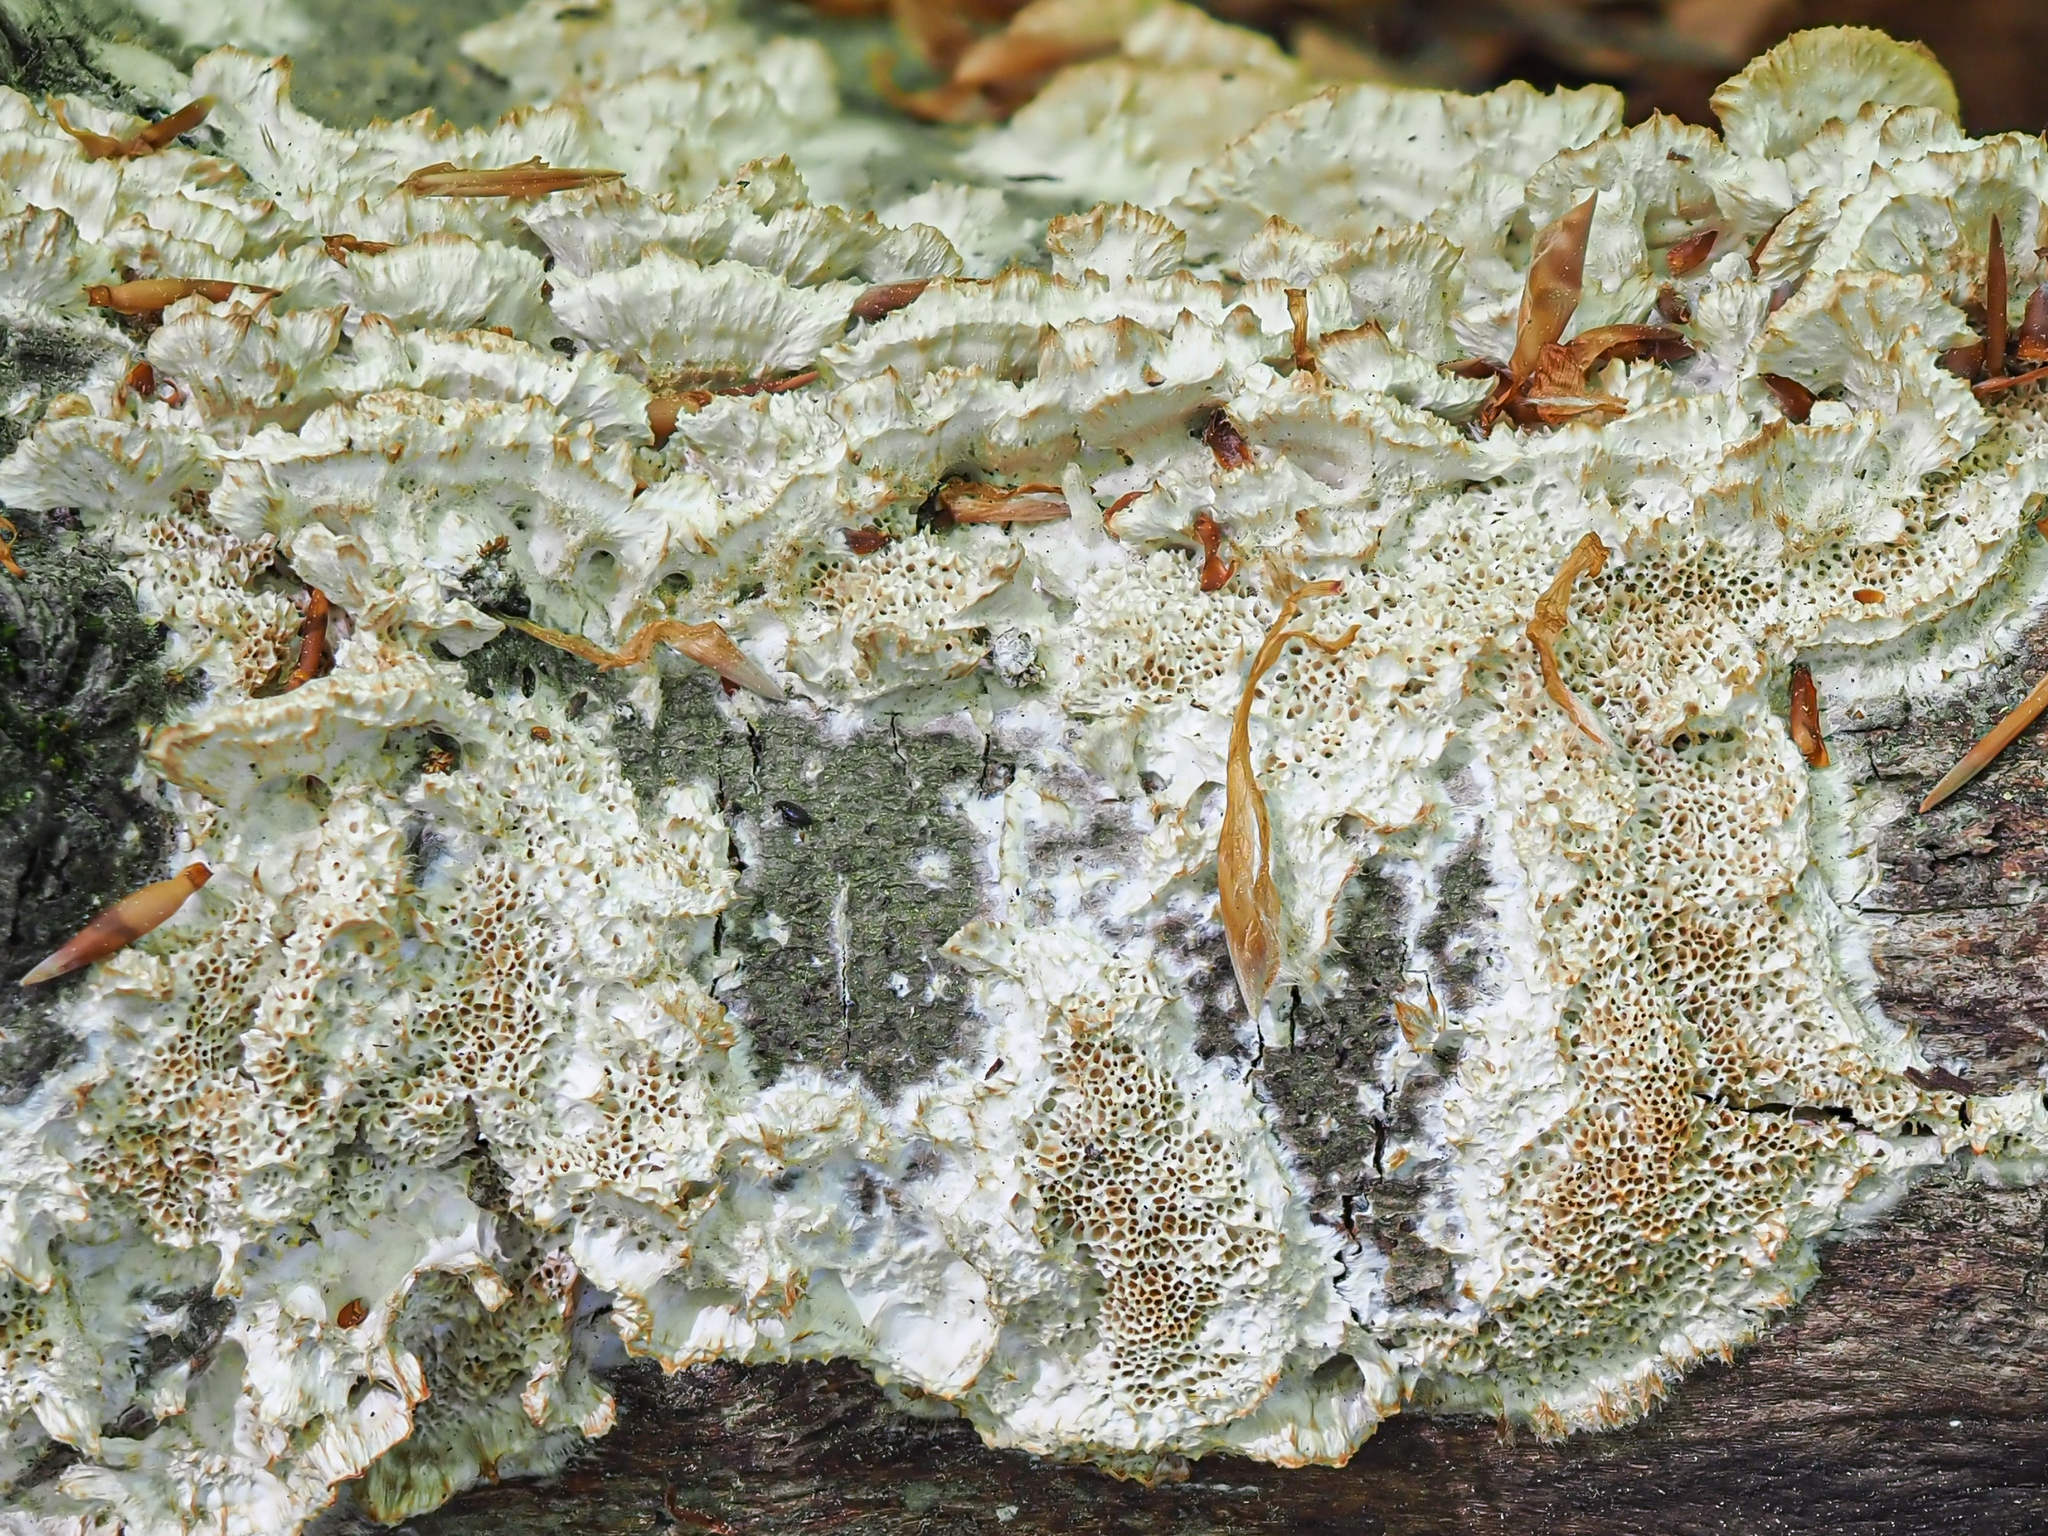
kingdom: Fungi
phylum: Basidiomycota
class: Agaricomycetes
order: Polyporales
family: Irpicaceae
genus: Trametopsis
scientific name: Trametopsis cervina
